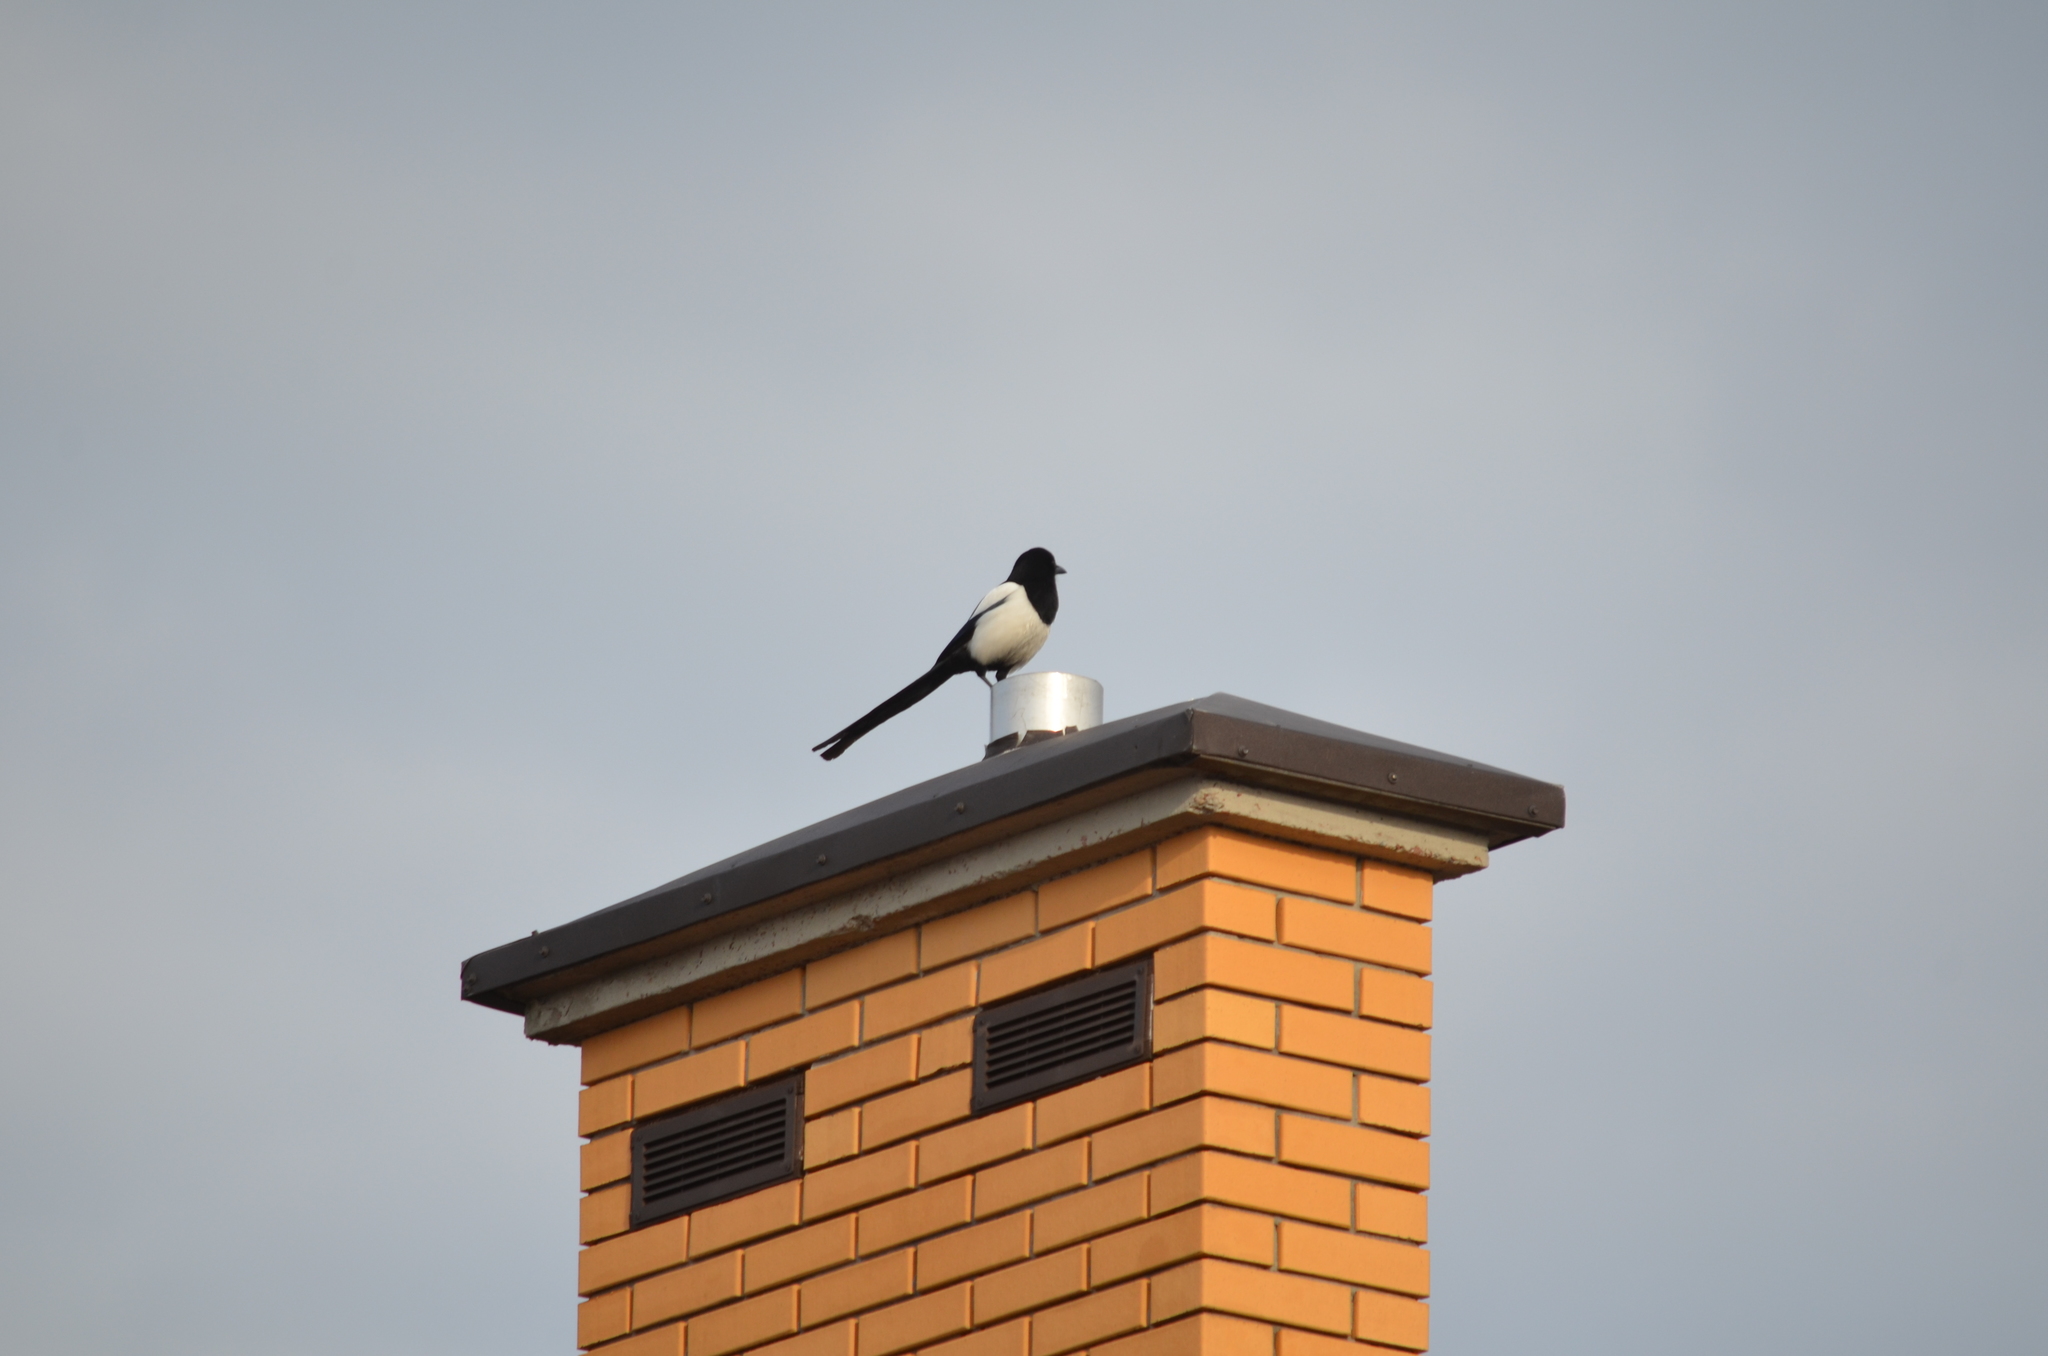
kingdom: Animalia
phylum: Chordata
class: Aves
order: Passeriformes
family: Corvidae
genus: Pica
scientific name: Pica pica
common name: Eurasian magpie
